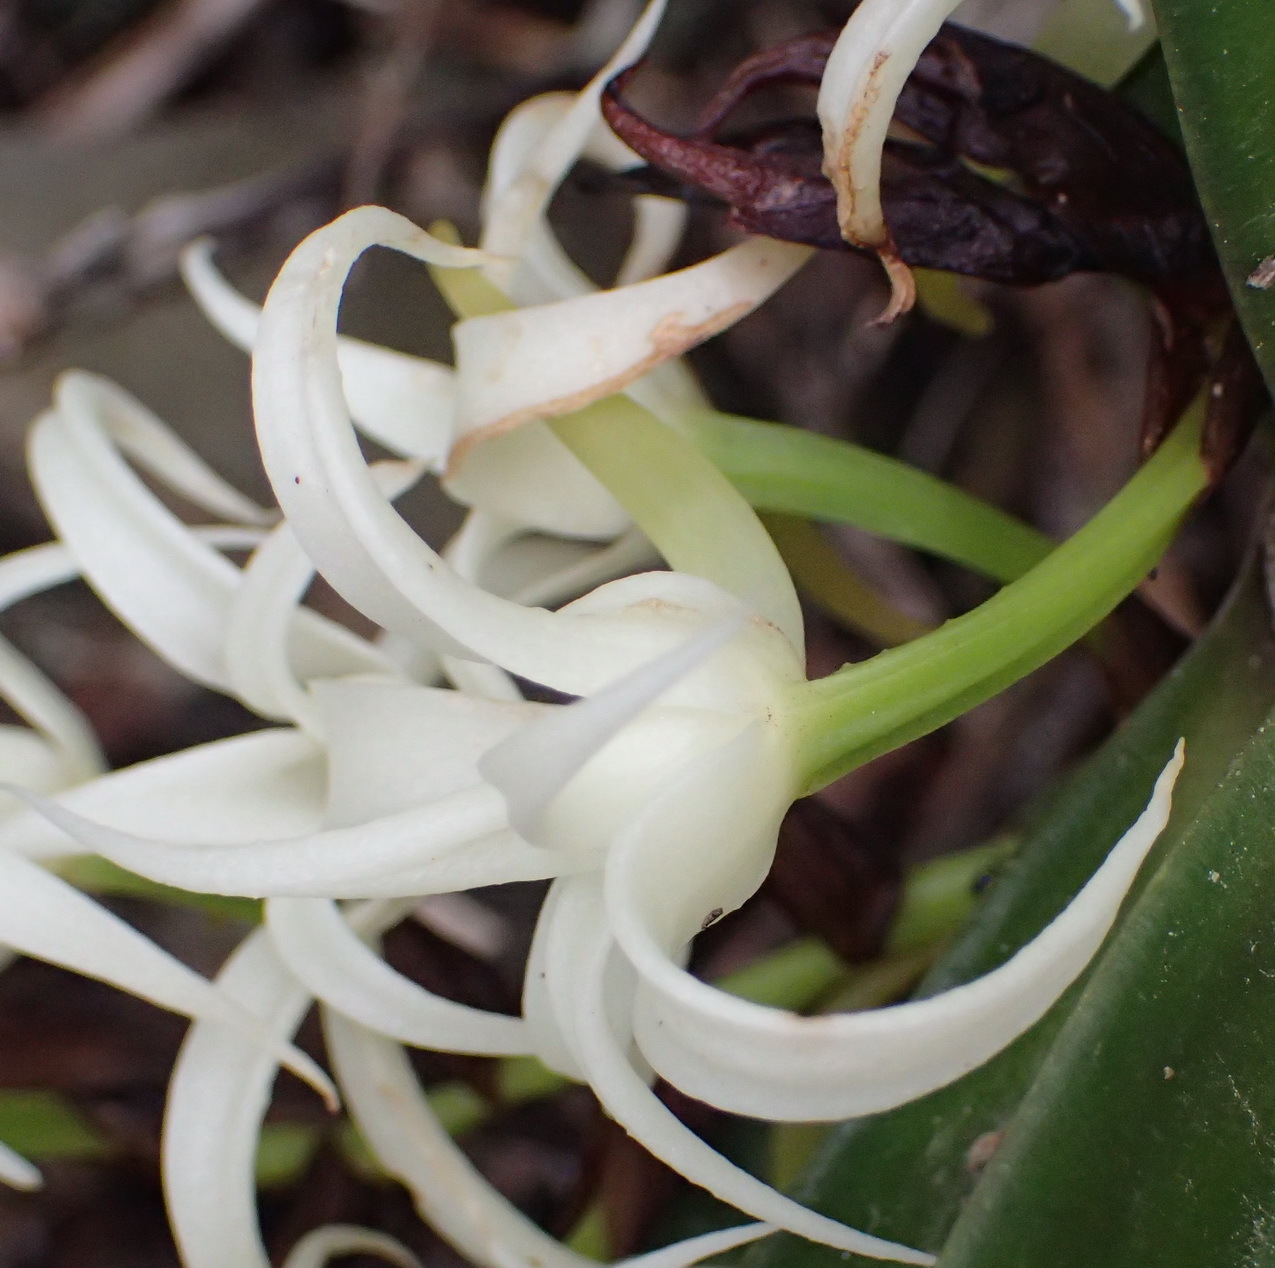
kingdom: Plantae
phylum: Tracheophyta
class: Liliopsida
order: Asparagales
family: Orchidaceae
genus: Cyrtorchis
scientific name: Cyrtorchis arcuata
